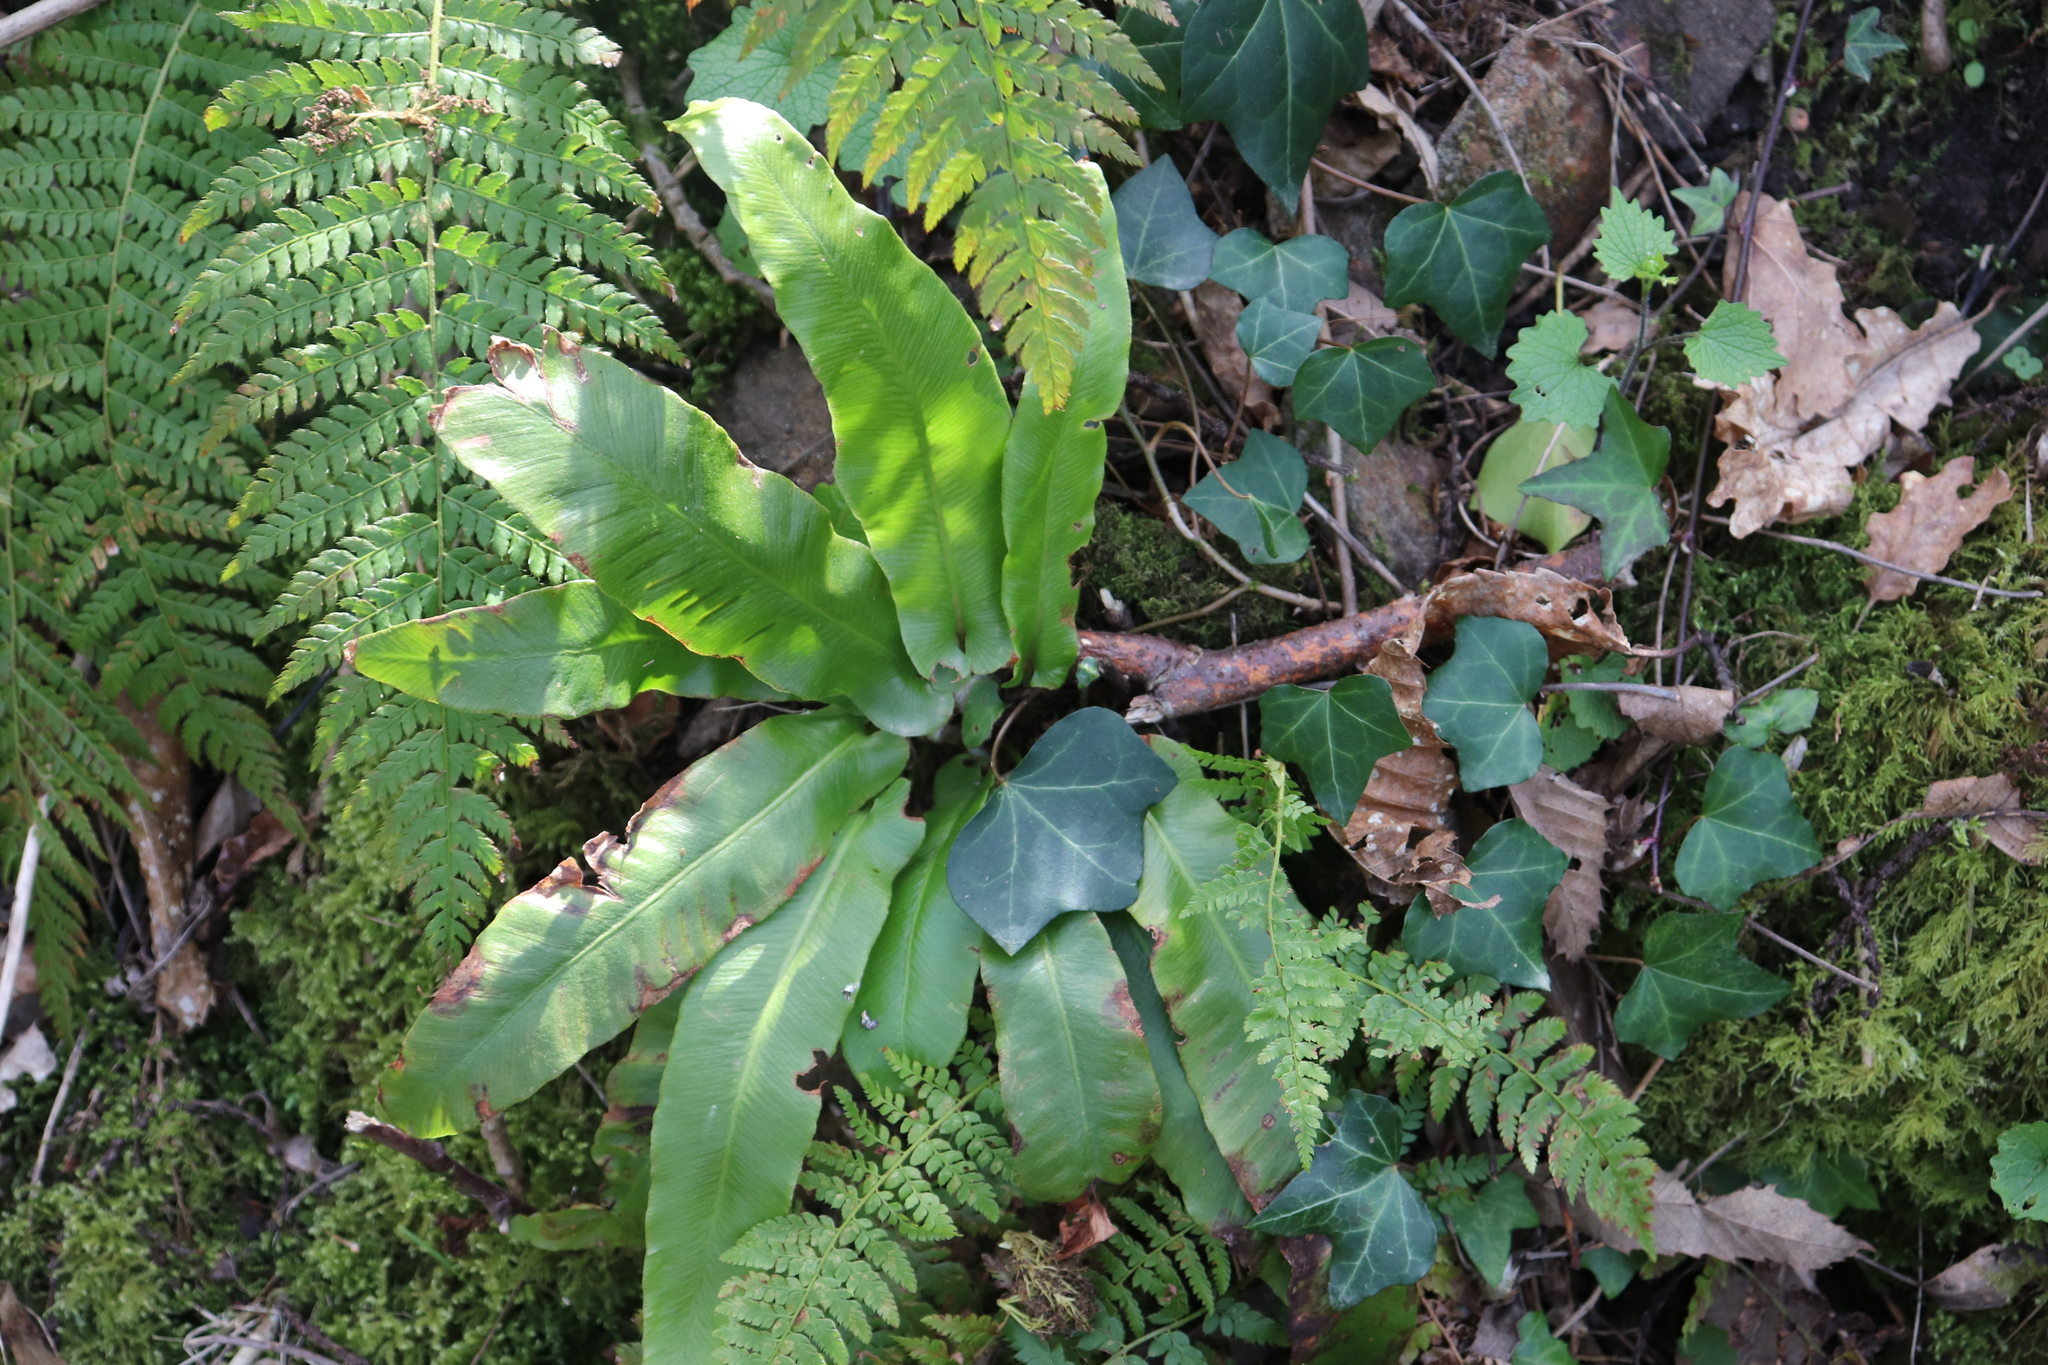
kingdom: Plantae
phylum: Tracheophyta
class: Polypodiopsida
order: Polypodiales
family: Aspleniaceae
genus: Asplenium
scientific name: Asplenium scolopendrium
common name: Hart's-tongue fern
